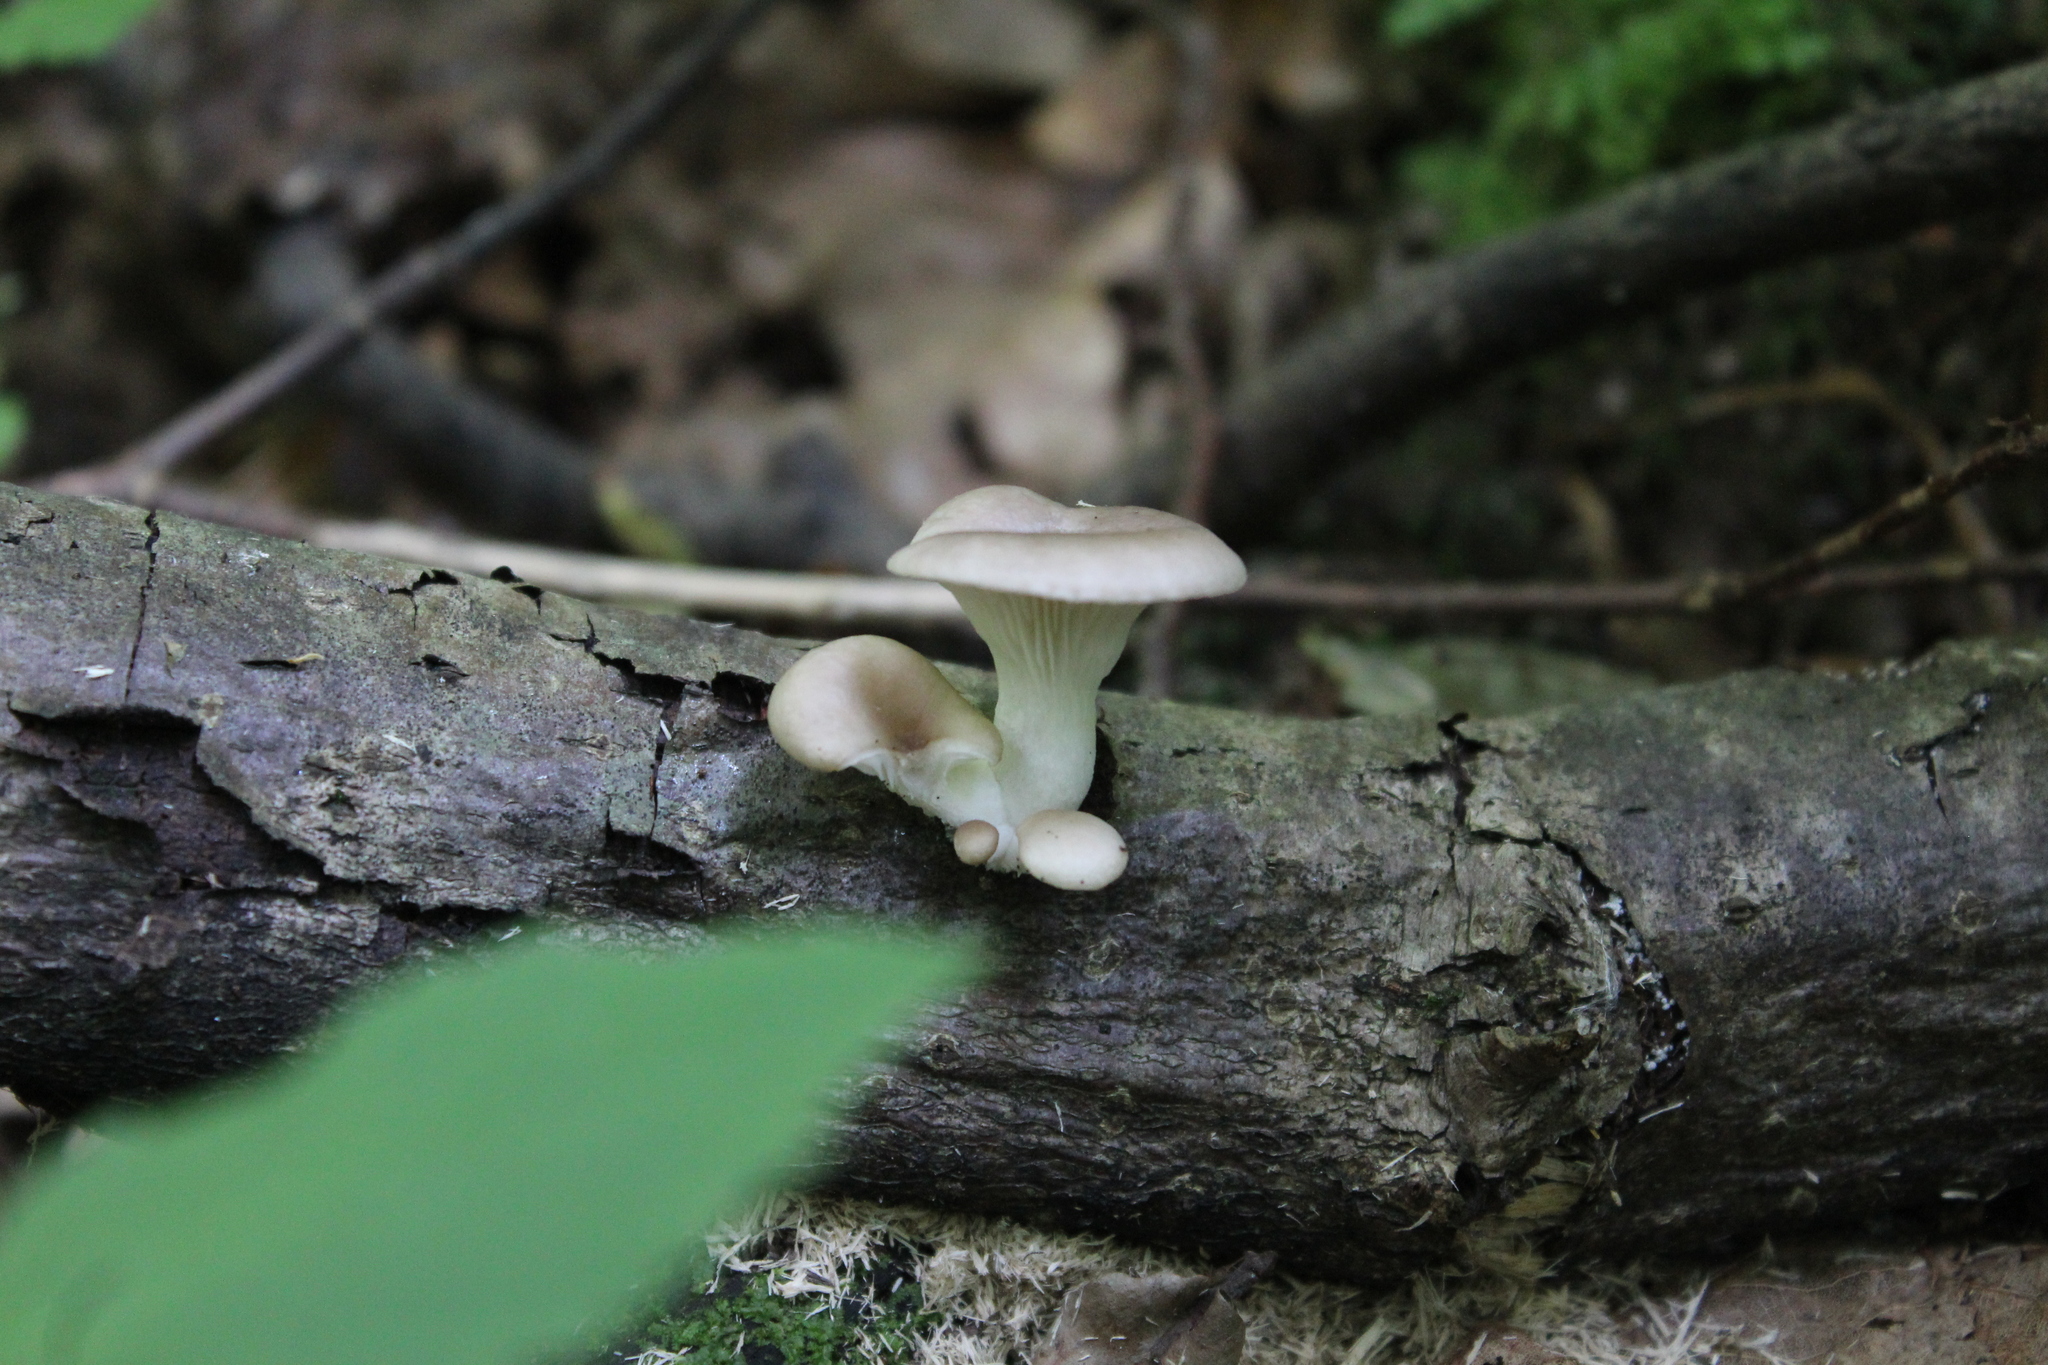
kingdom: Fungi
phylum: Basidiomycota
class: Agaricomycetes
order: Agaricales
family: Pleurotaceae
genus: Pleurotus
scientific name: Pleurotus pulmonarius
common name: Pale oyster
